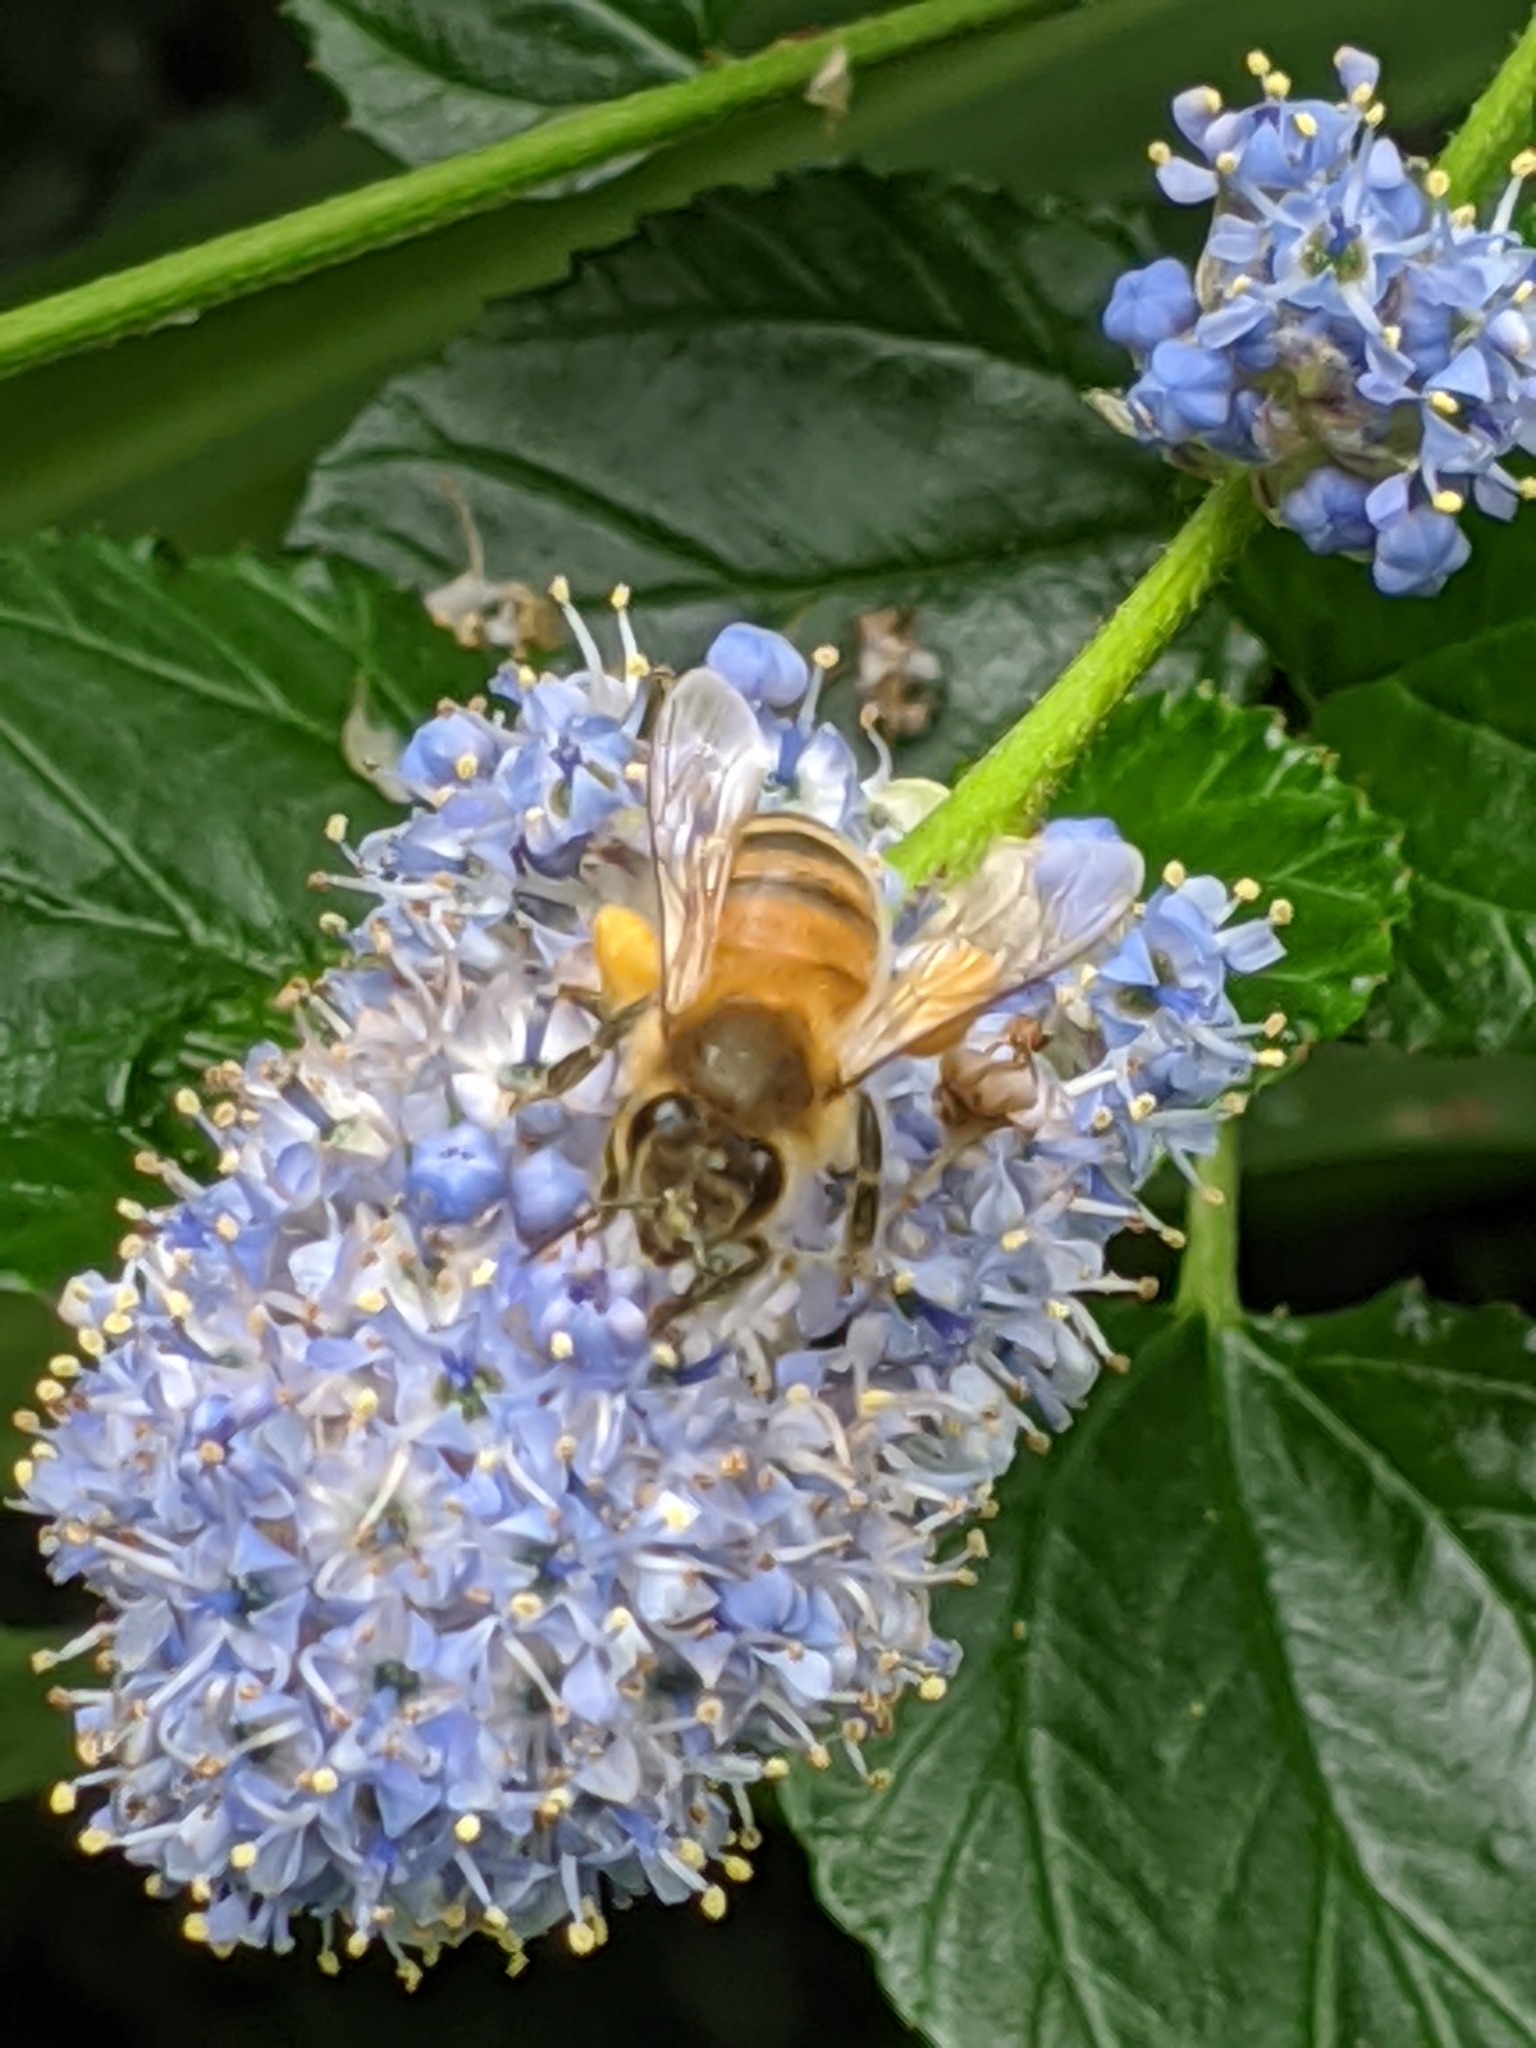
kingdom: Animalia
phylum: Arthropoda
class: Insecta
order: Hymenoptera
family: Apidae
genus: Apis
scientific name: Apis mellifera
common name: Honey bee
